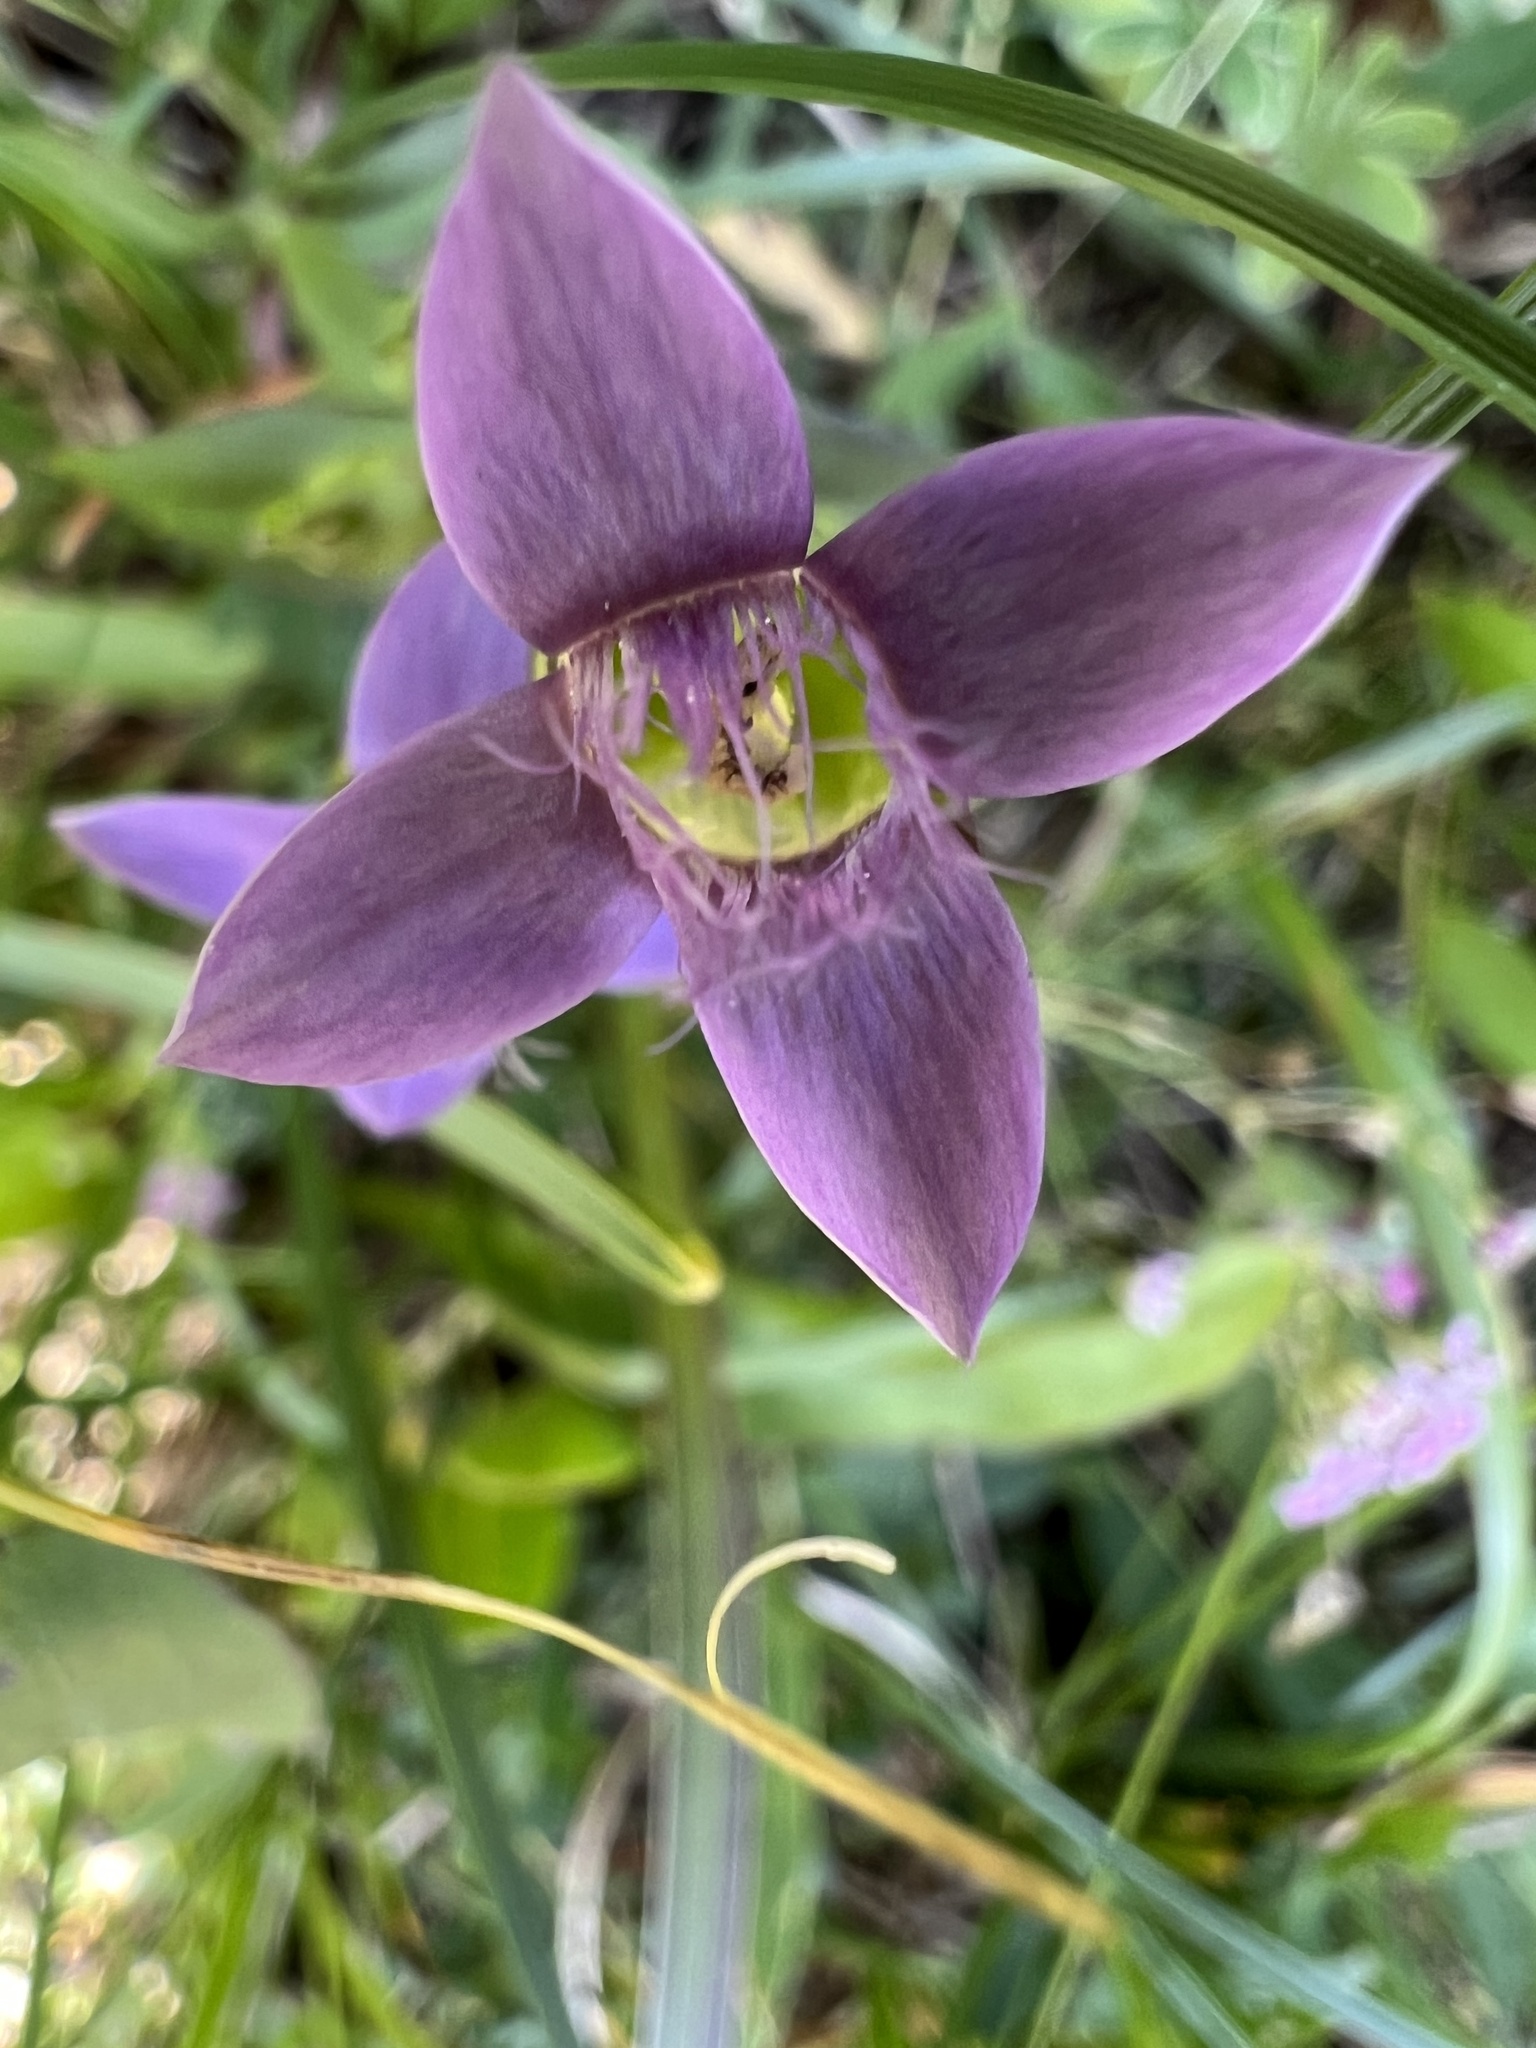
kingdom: Plantae
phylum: Tracheophyta
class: Magnoliopsida
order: Gentianales
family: Gentianaceae
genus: Gentianella
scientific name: Gentianella campestris
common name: Field gentian
